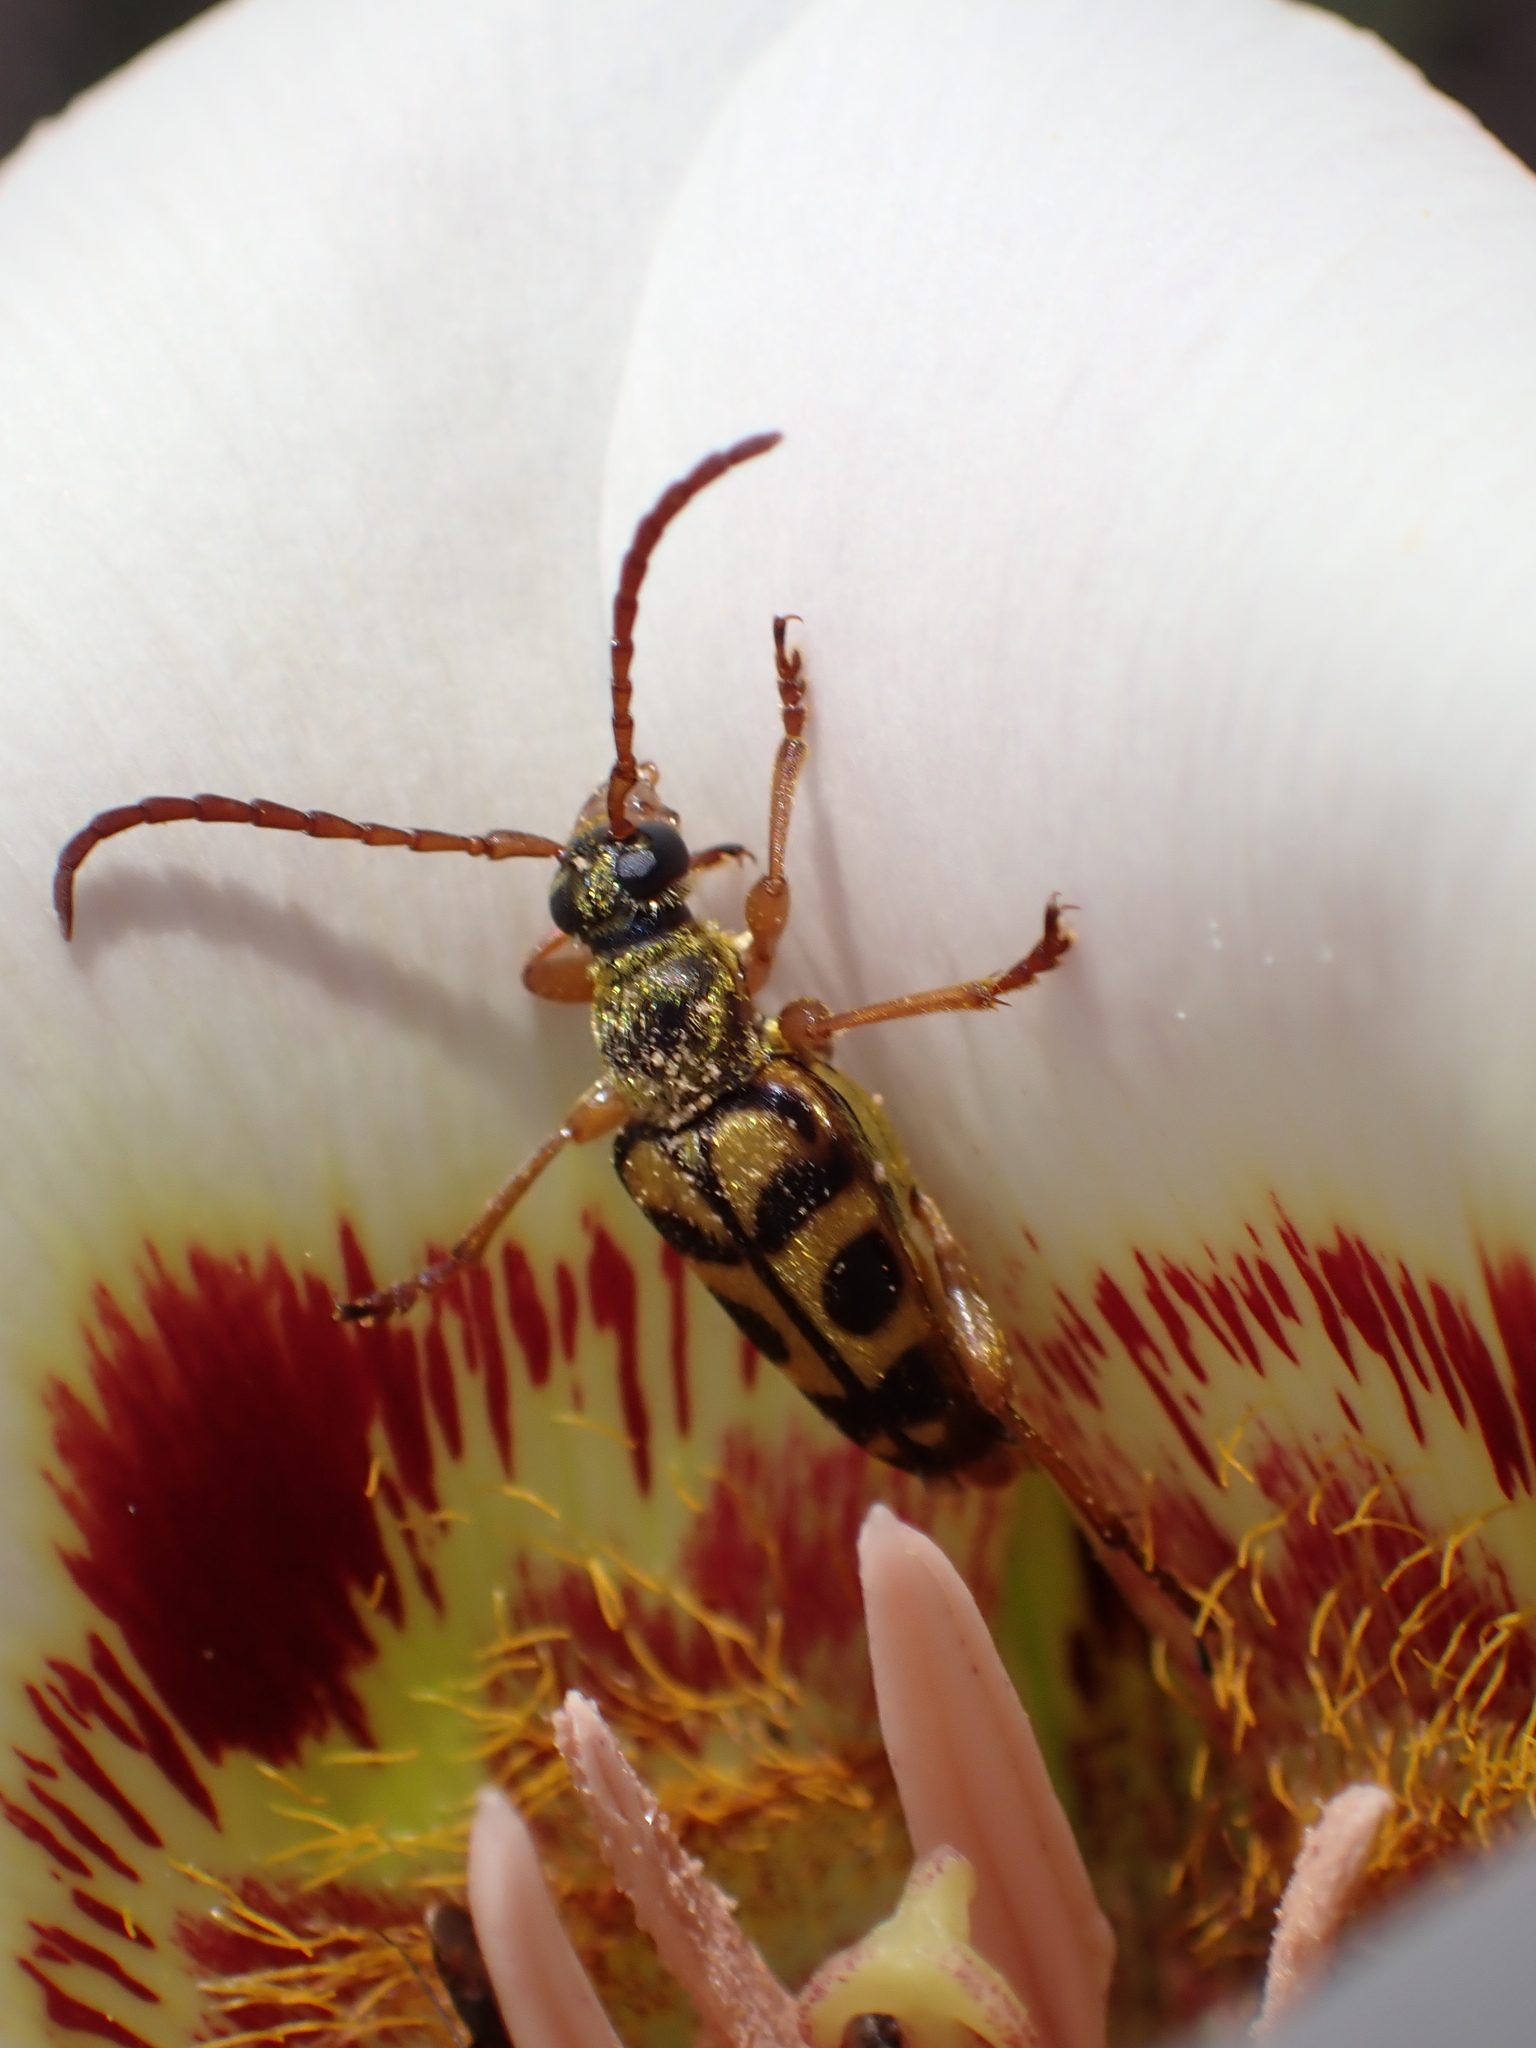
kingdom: Animalia
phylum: Arthropoda
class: Insecta
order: Coleoptera
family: Cerambycidae
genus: Strophiona
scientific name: Strophiona tigrina
